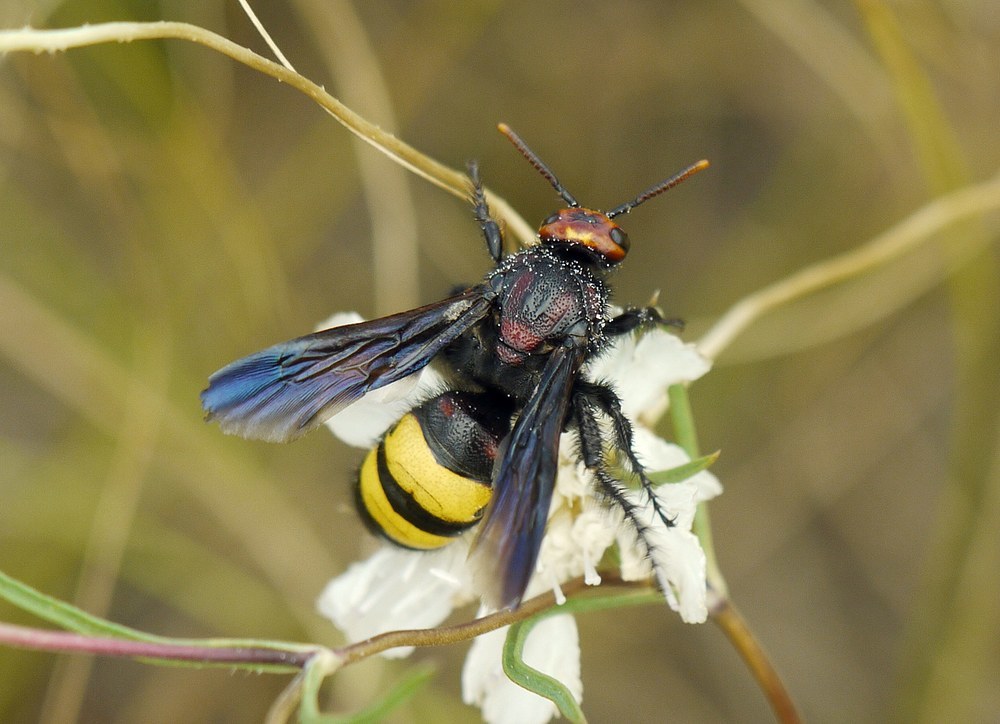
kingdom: Animalia
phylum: Arthropoda
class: Insecta
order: Hymenoptera
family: Vespidae
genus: Vespa
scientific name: Vespa galbula
